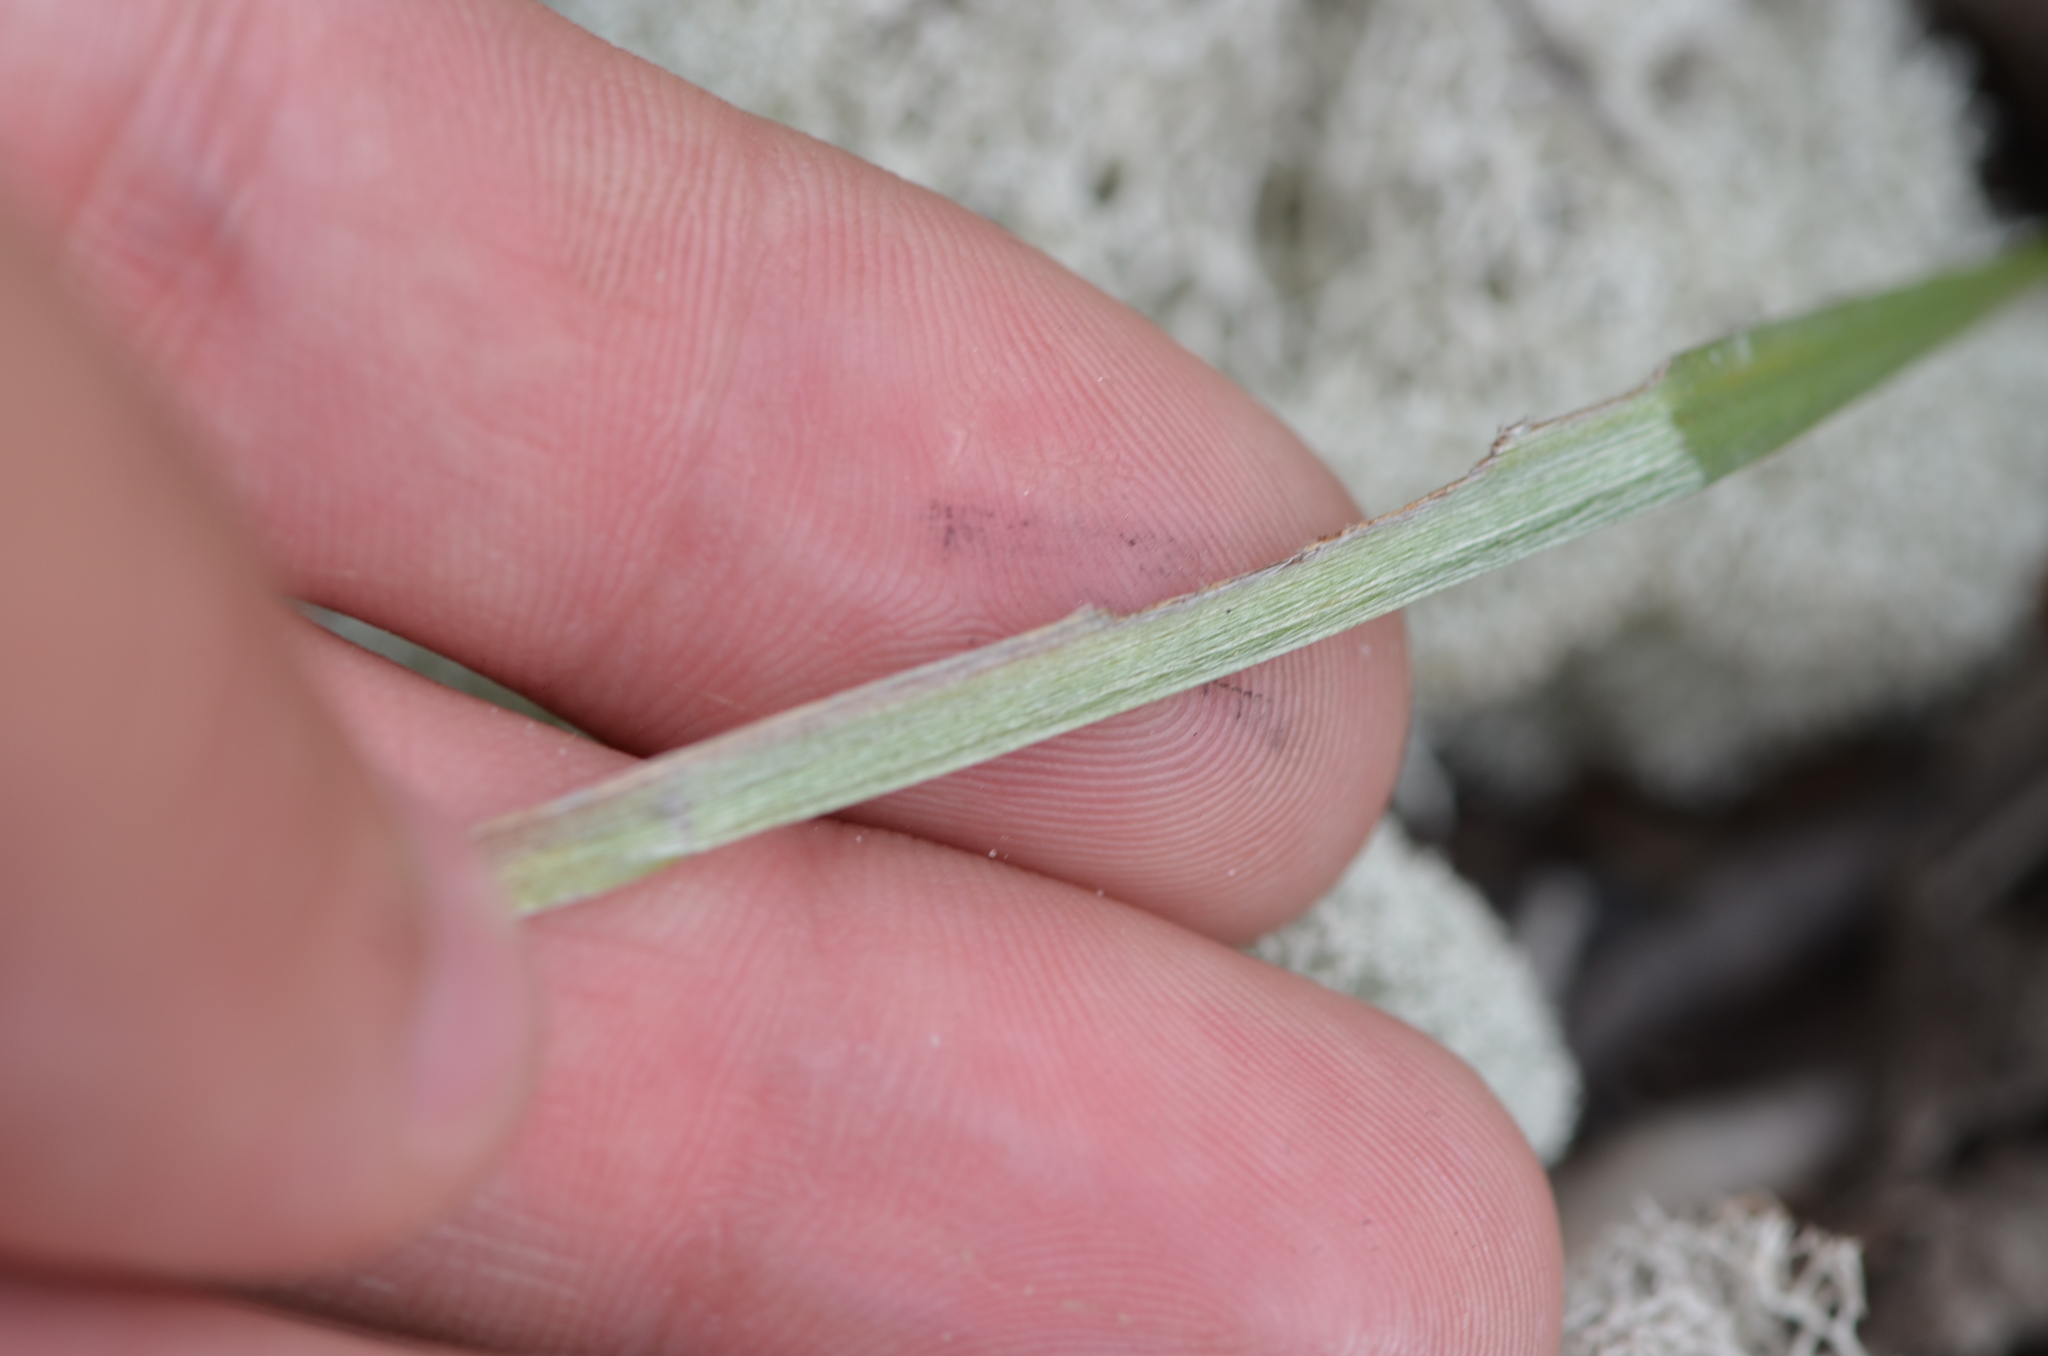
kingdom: Plantae
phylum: Tracheophyta
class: Magnoliopsida
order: Asterales
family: Asteraceae
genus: Pityopsis
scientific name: Pityopsis graminifolia
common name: Grass-leaf golden-aster
